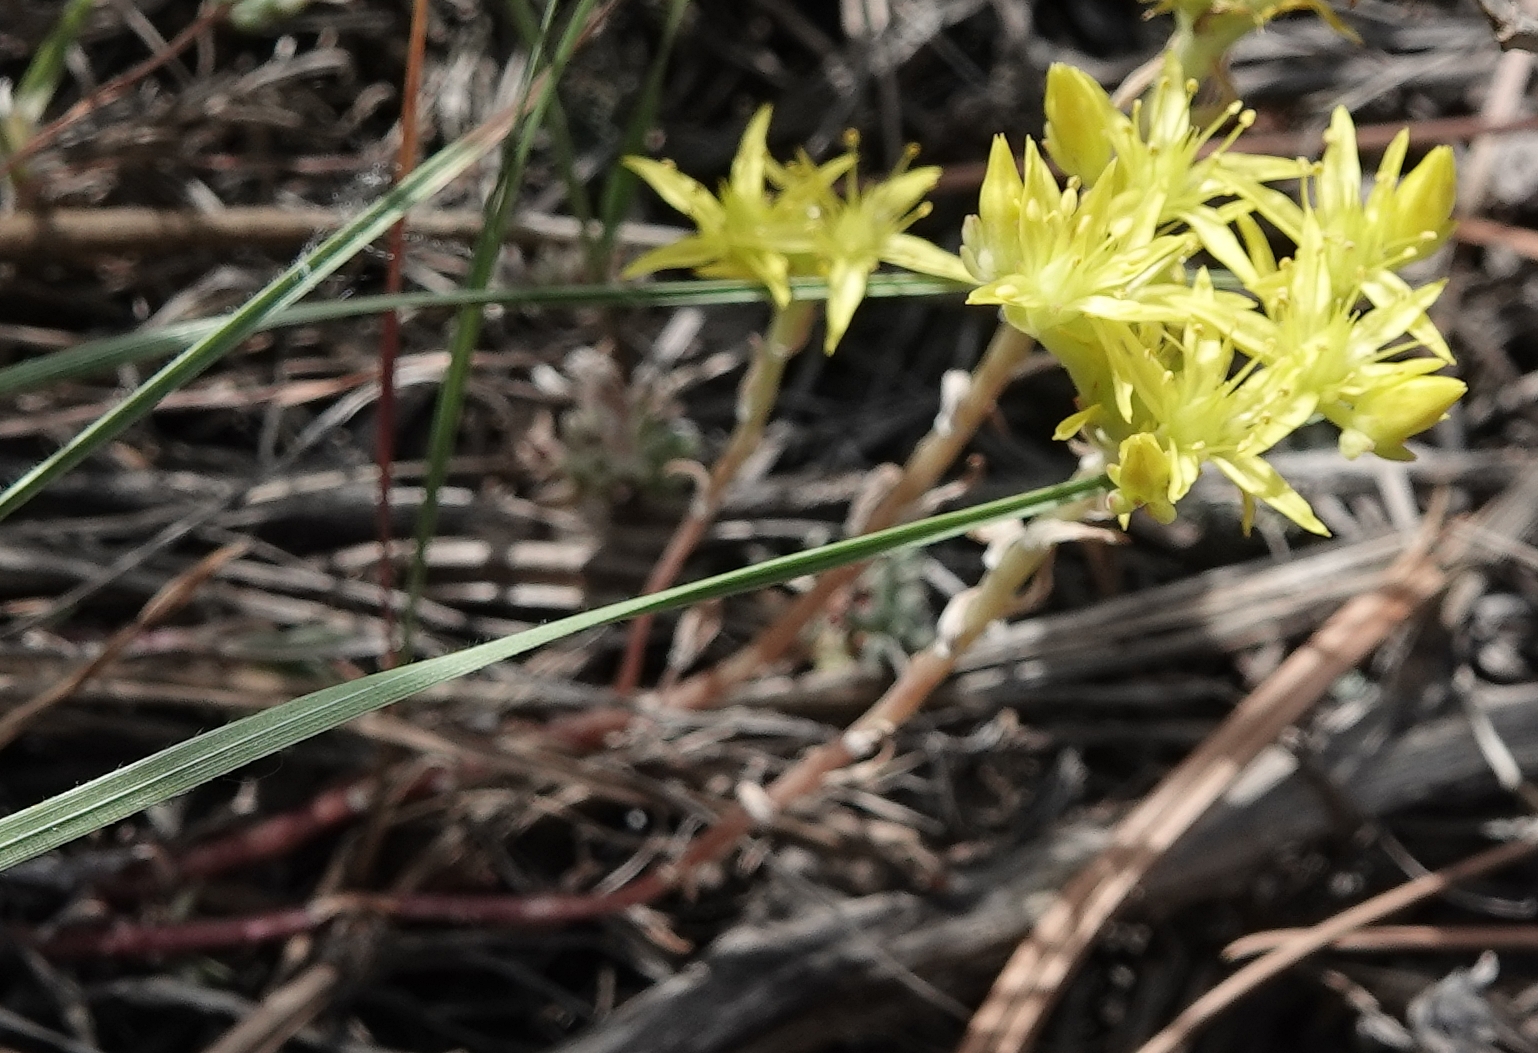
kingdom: Plantae
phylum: Tracheophyta
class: Magnoliopsida
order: Saxifragales
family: Crassulaceae
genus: Sedum
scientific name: Sedum lanceolatum
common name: Common stonecrop
